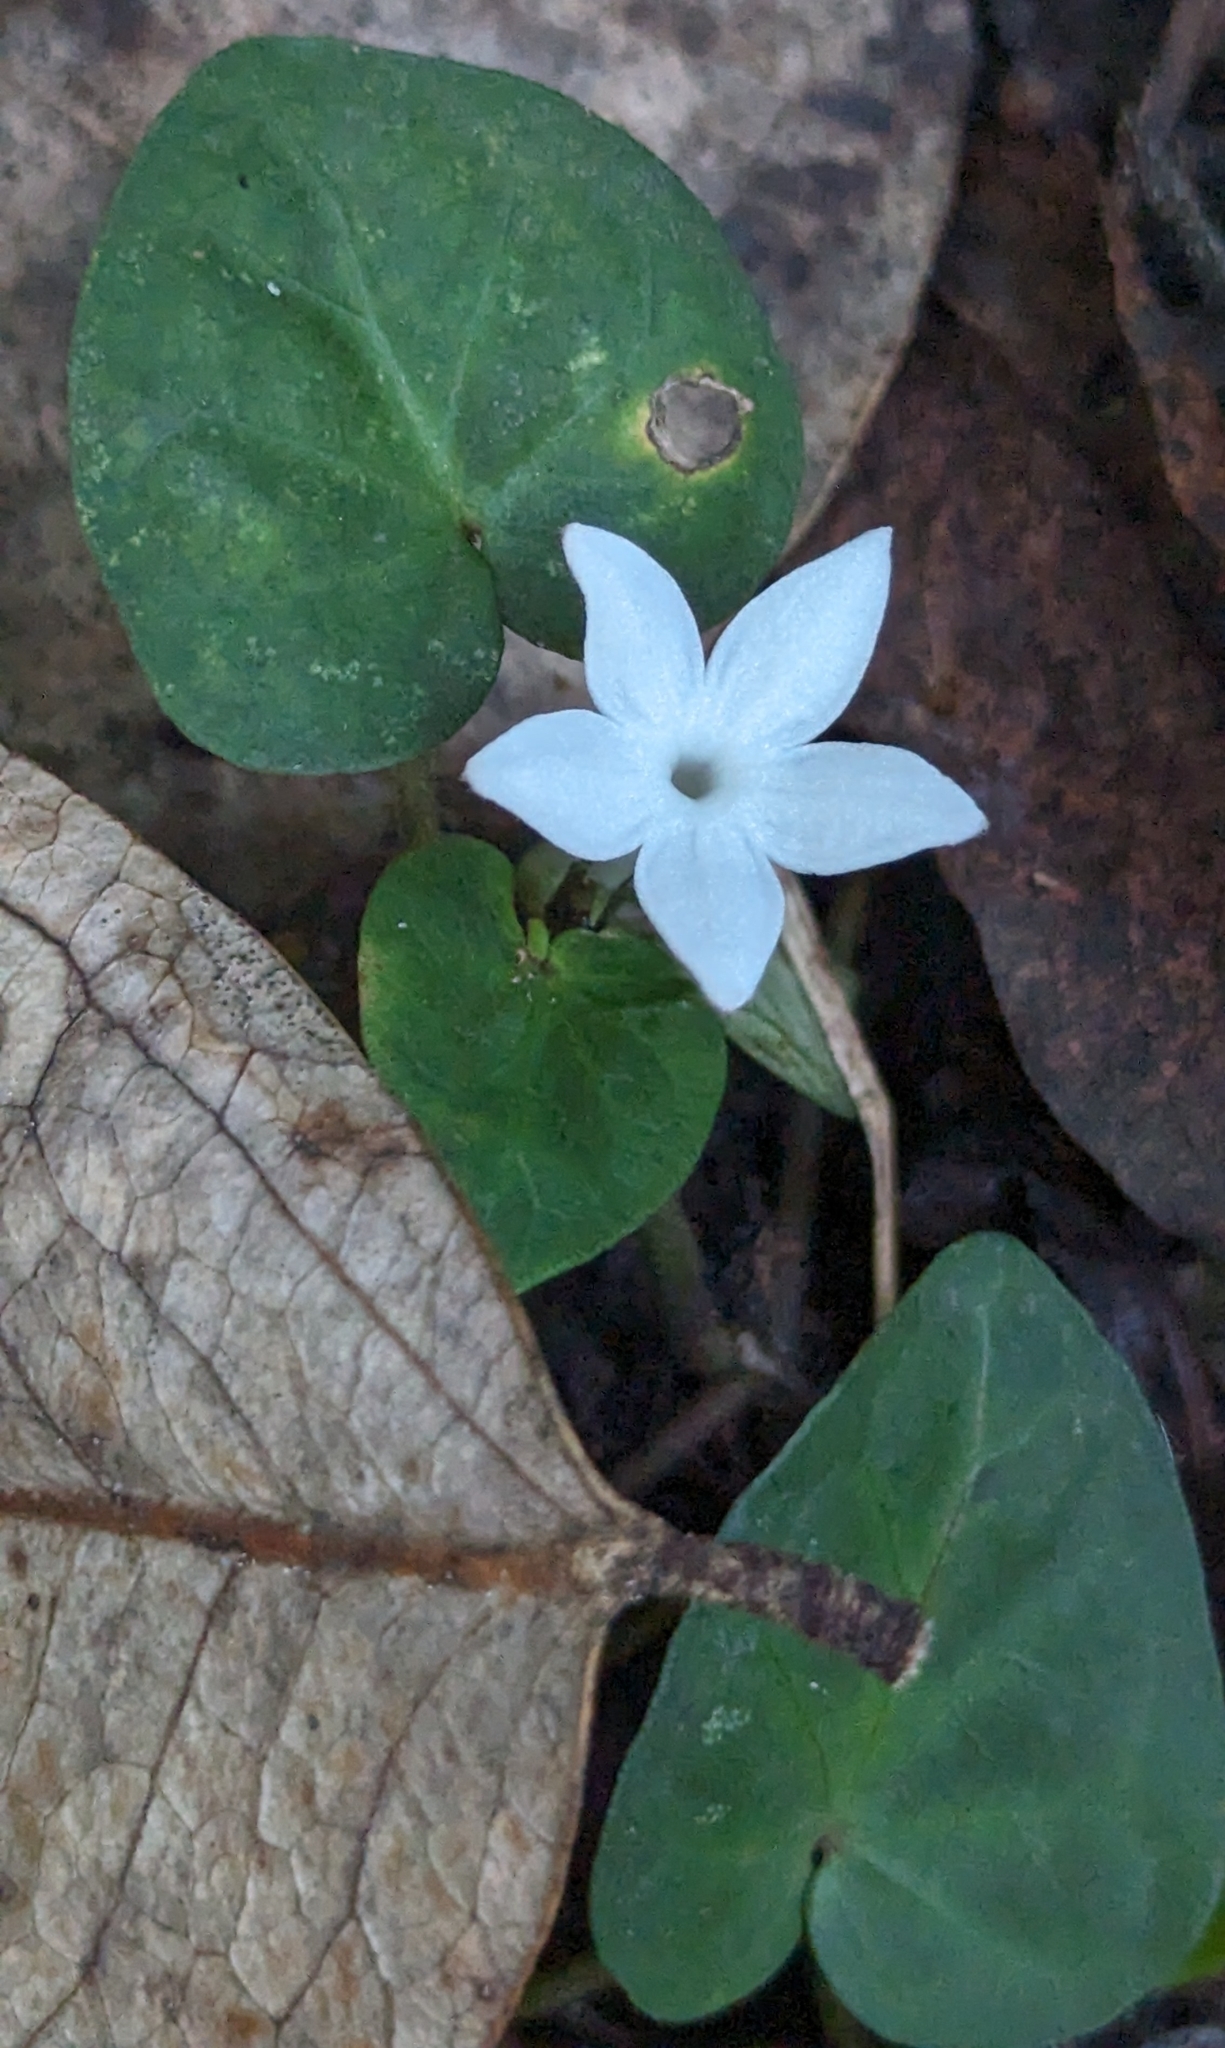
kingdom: Plantae
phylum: Tracheophyta
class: Magnoliopsida
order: Gentianales
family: Rubiaceae
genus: Geophila
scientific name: Geophila herbacea
